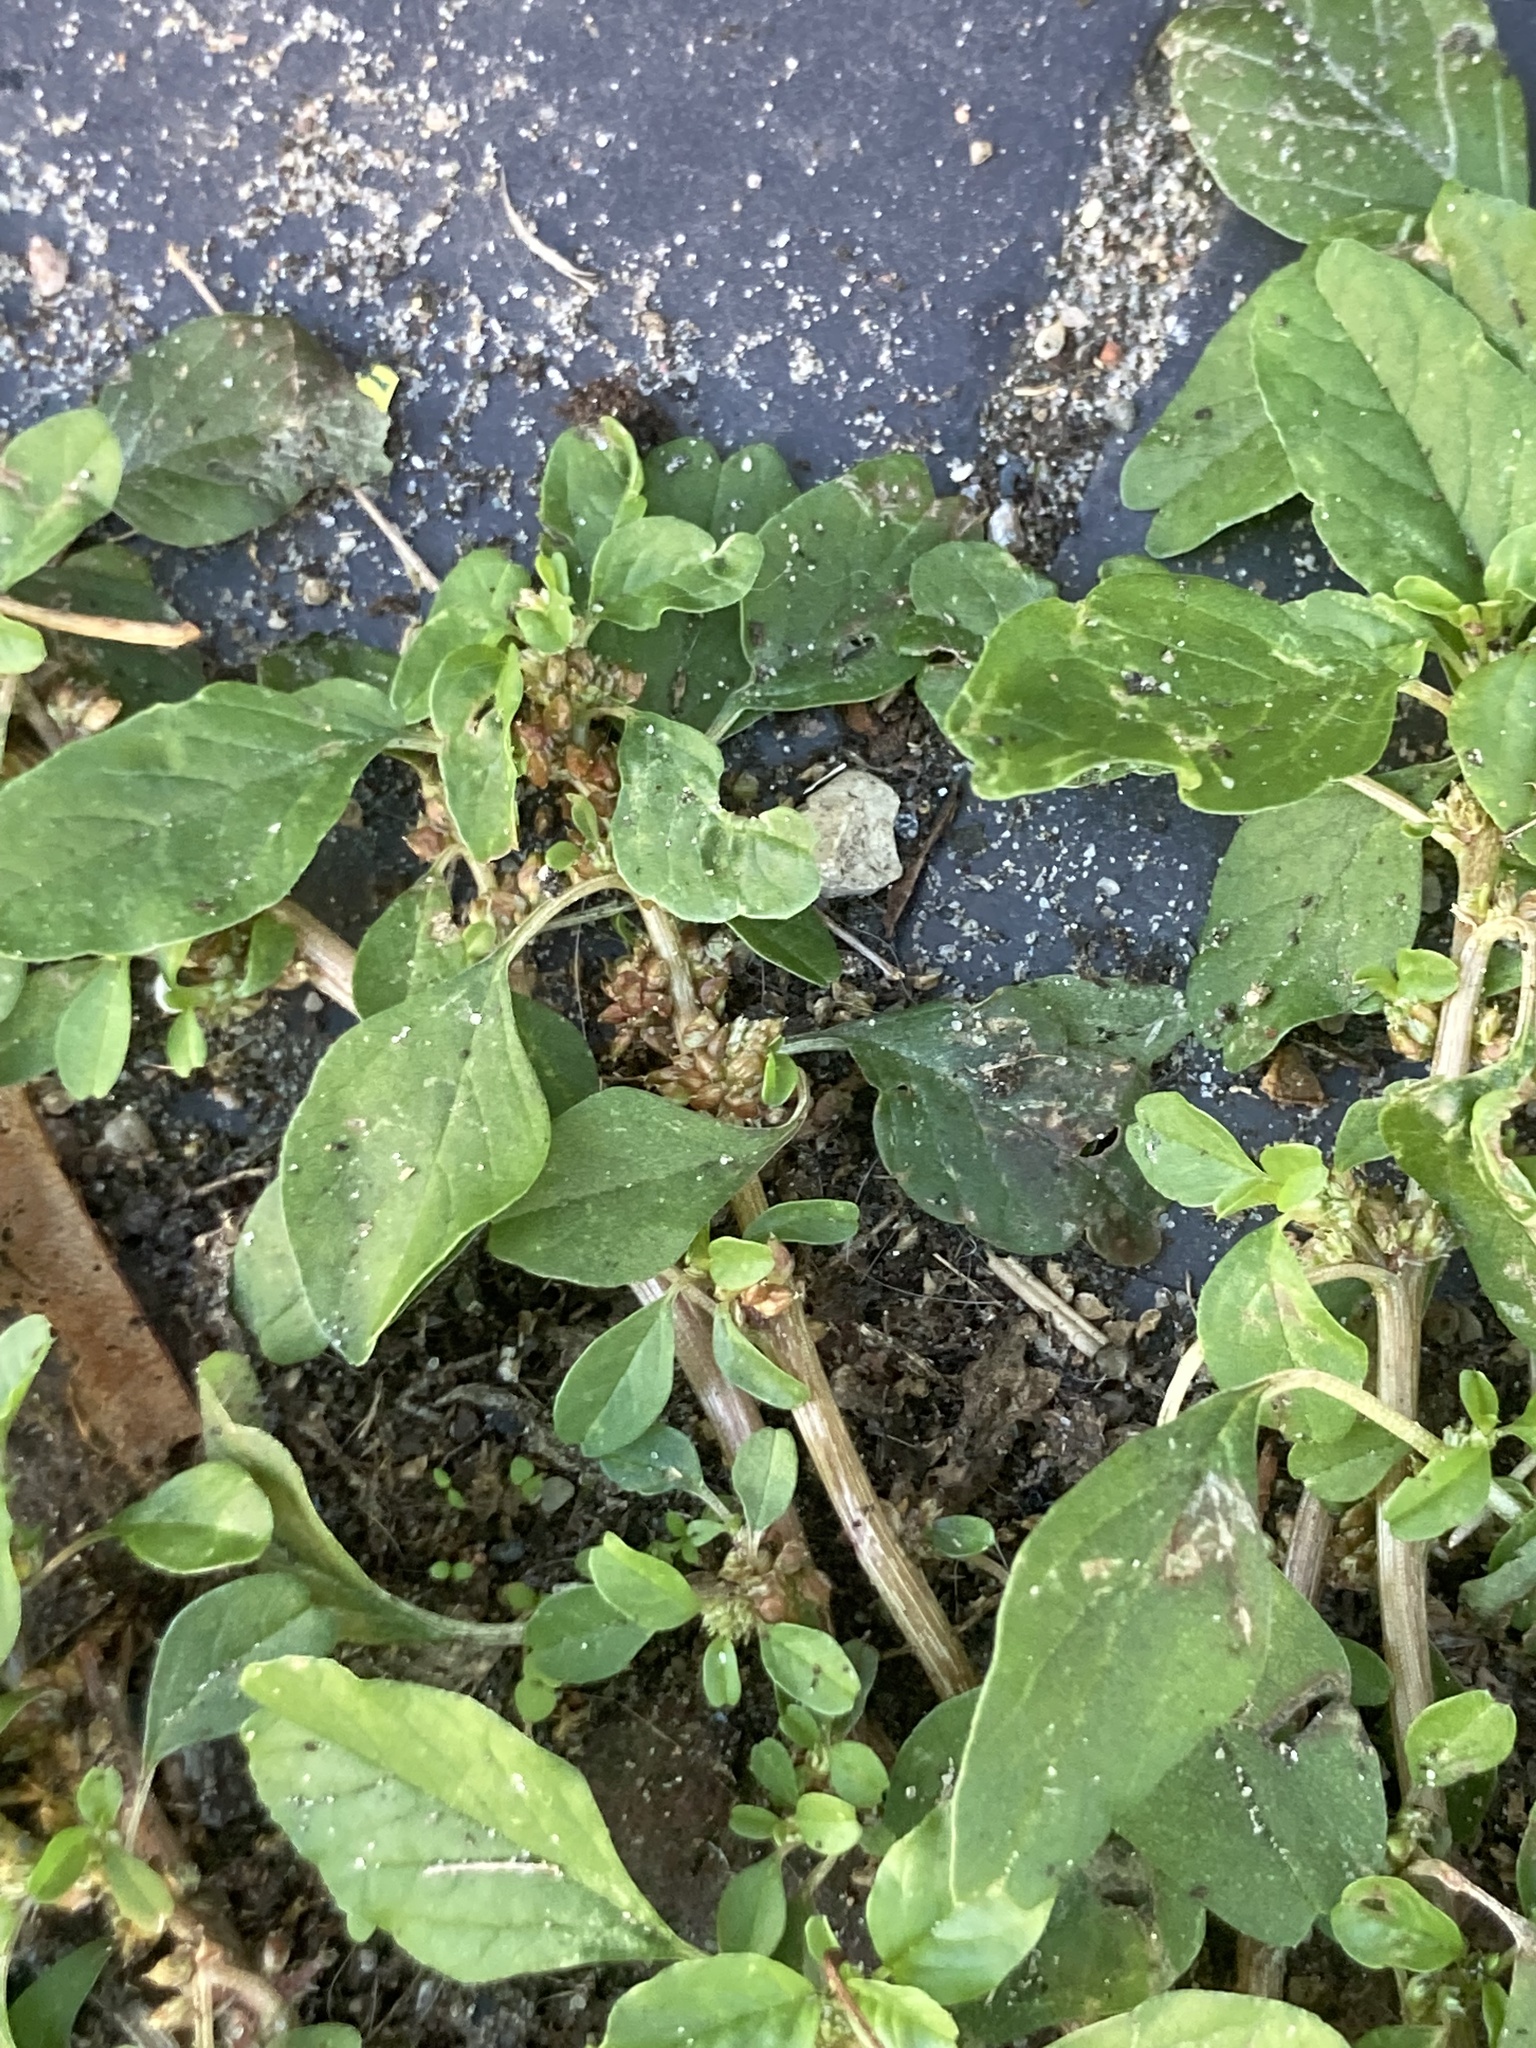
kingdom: Plantae
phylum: Tracheophyta
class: Magnoliopsida
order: Caryophyllales
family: Amaranthaceae
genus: Amaranthus
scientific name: Amaranthus blitum
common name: Purple amaranth
